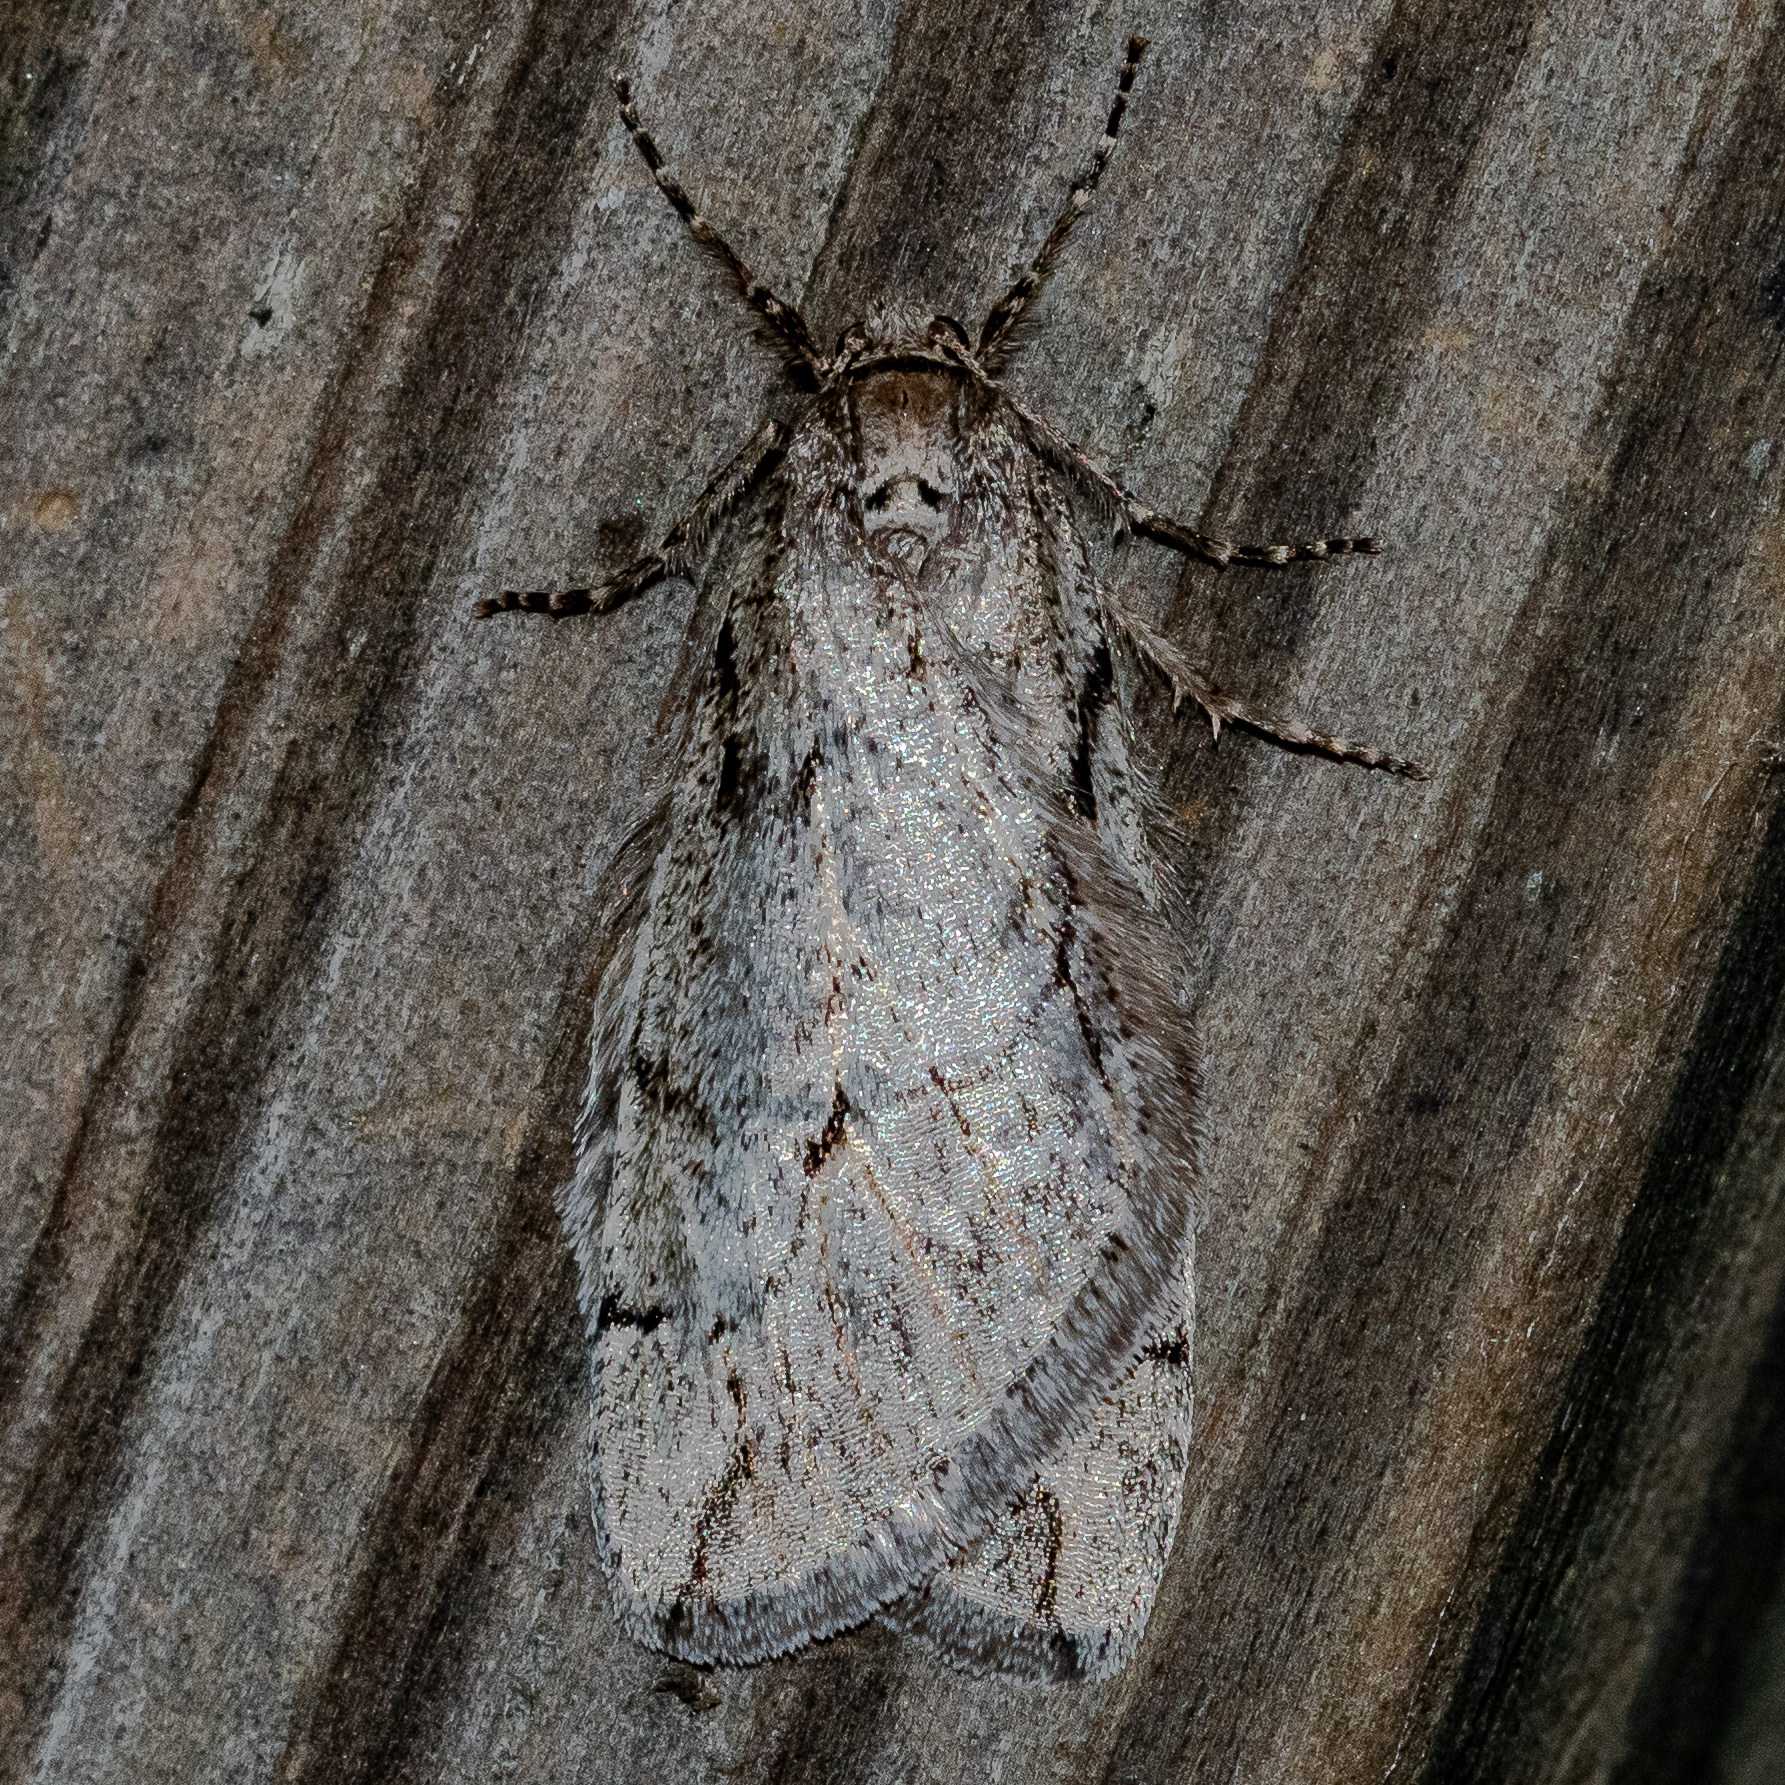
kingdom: Animalia
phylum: Arthropoda
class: Insecta
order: Lepidoptera
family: Geometridae
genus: Paleacrita
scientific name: Paleacrita vernata
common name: Spring cankerworm
